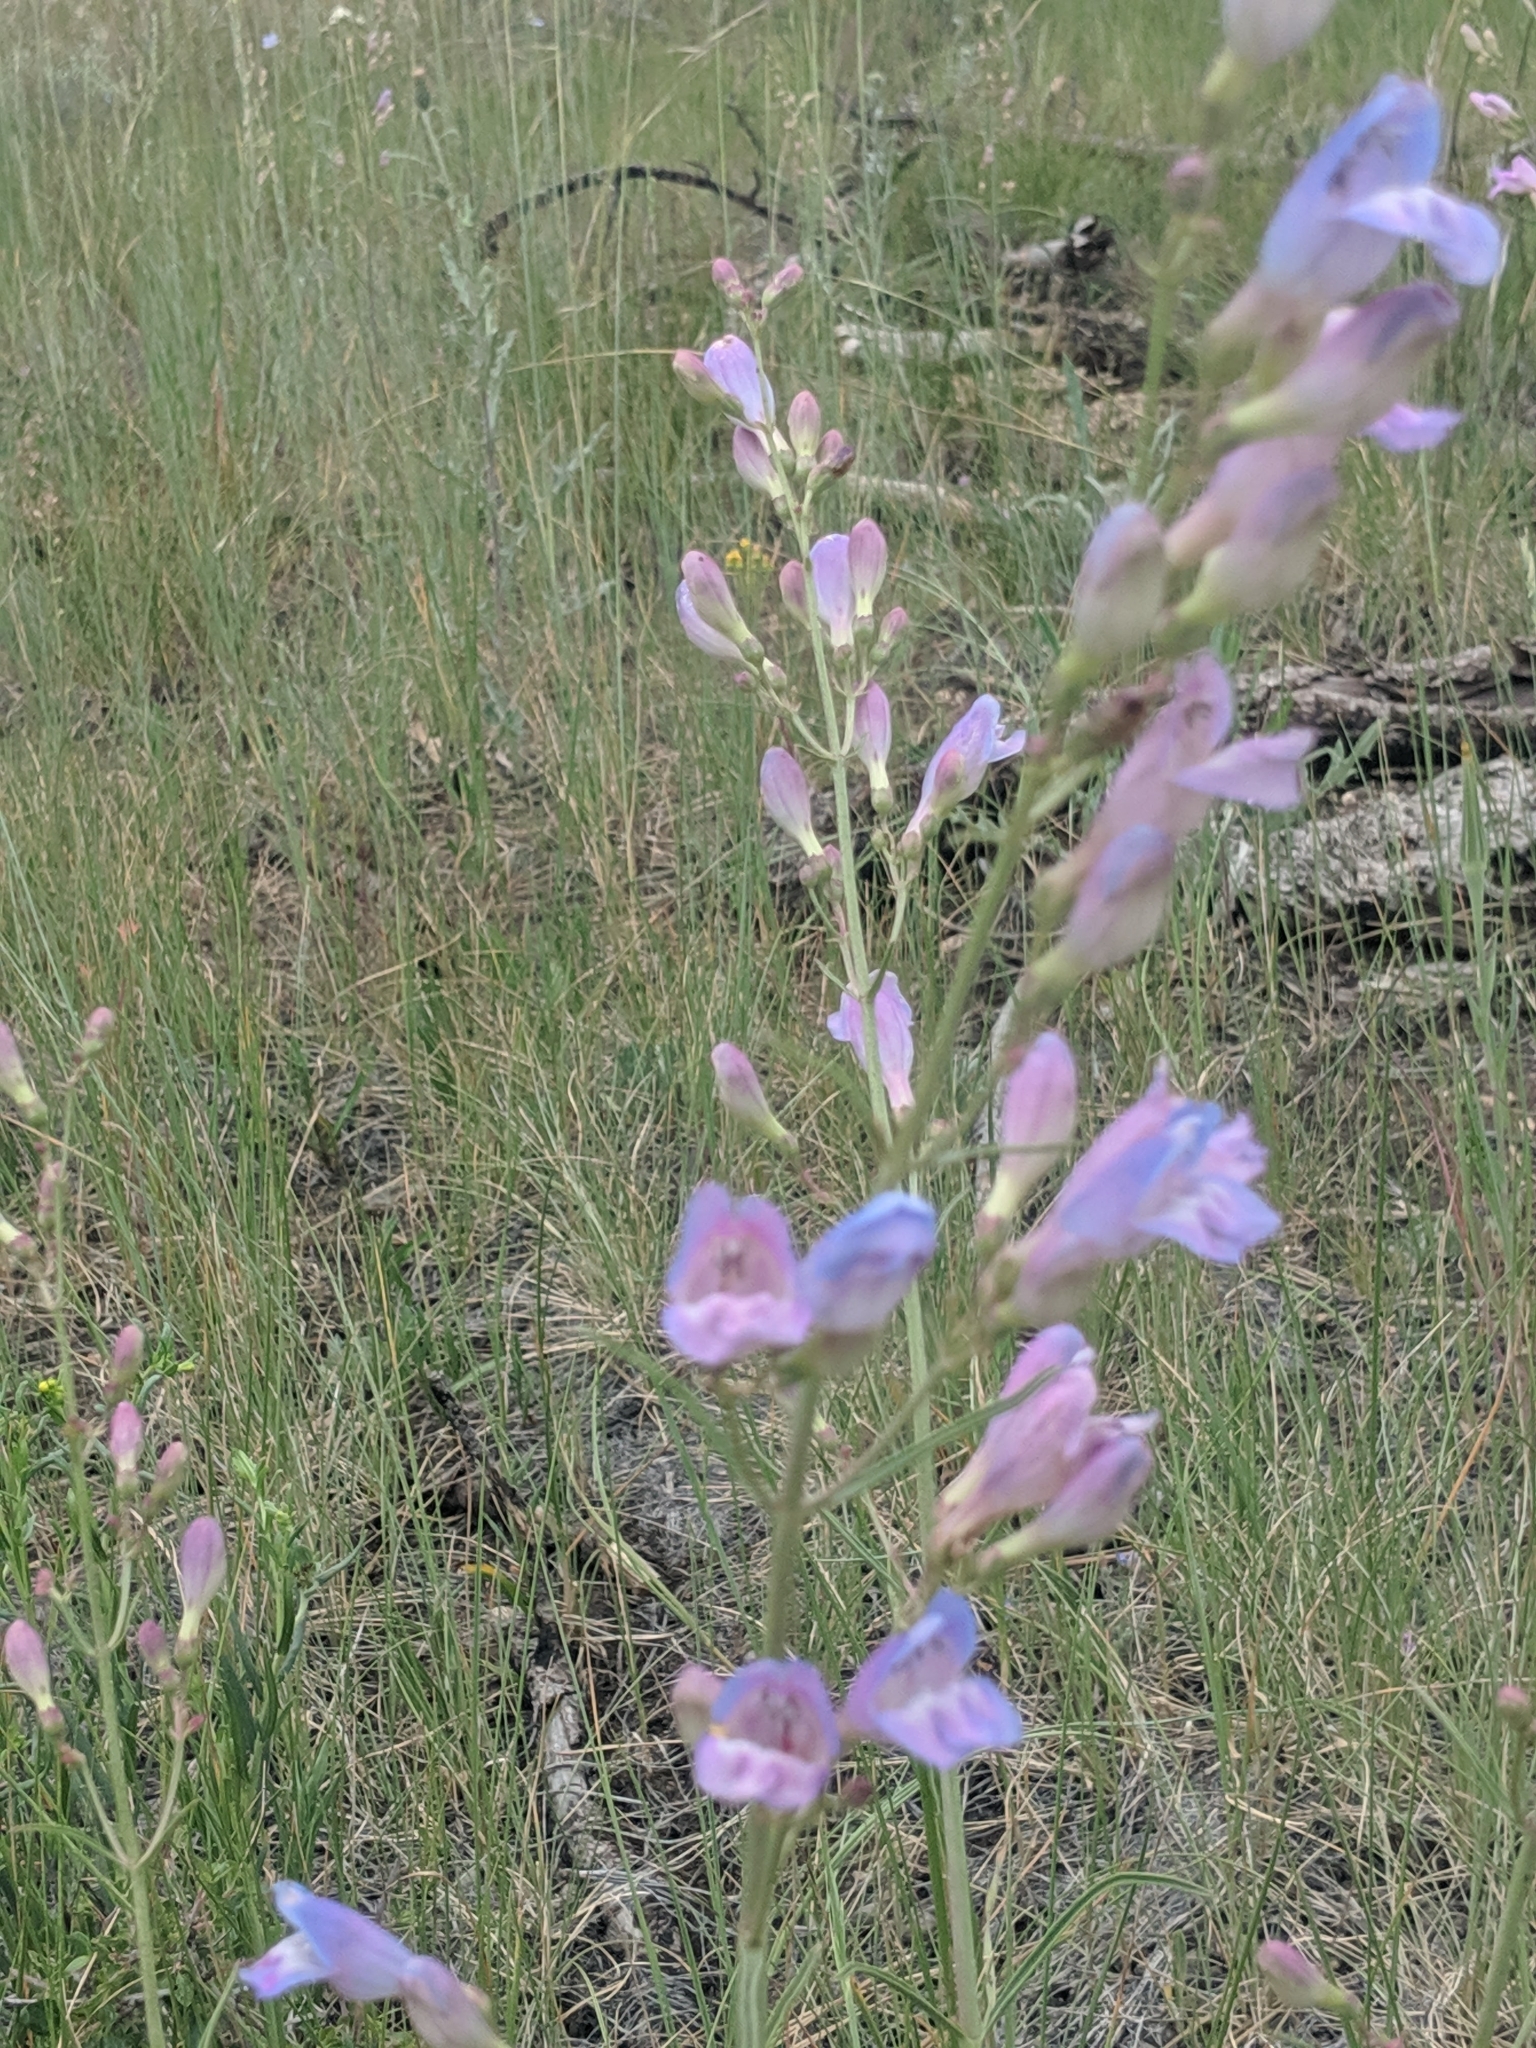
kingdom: Plantae
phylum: Tracheophyta
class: Magnoliopsida
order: Lamiales
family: Plantaginaceae
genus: Penstemon
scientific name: Penstemon comarrhenus
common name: Dusty penstemon
